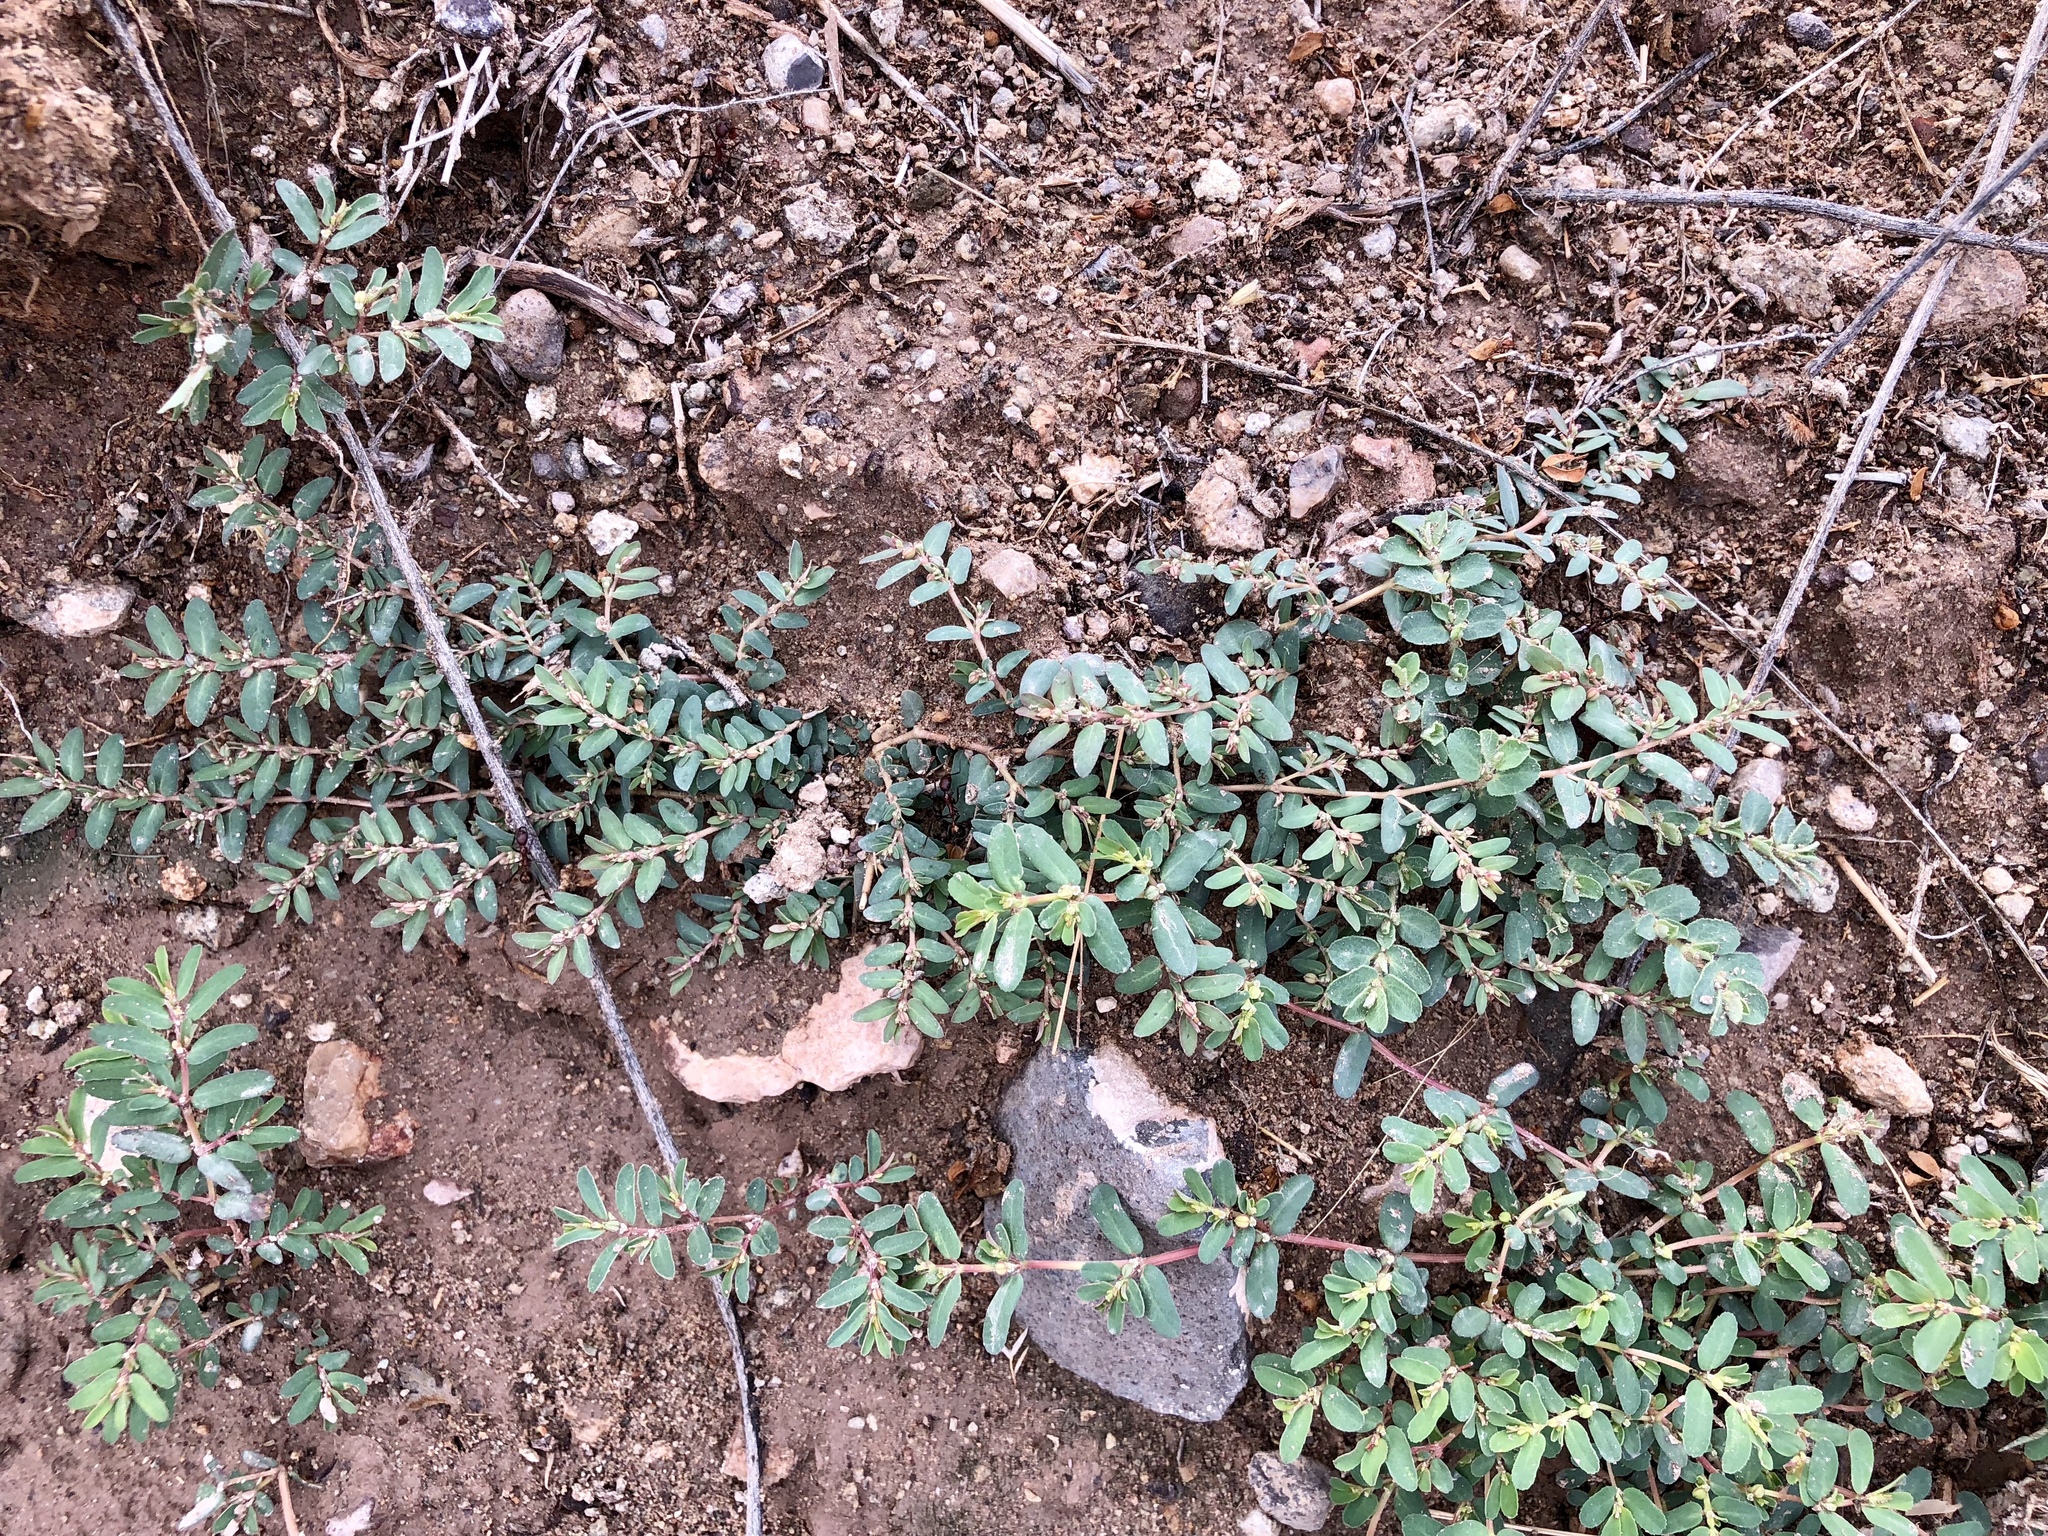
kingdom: Plantae
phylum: Tracheophyta
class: Magnoliopsida
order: Malpighiales
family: Euphorbiaceae
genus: Euphorbia
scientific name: Euphorbia abramsiana
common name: Abram's spurge
